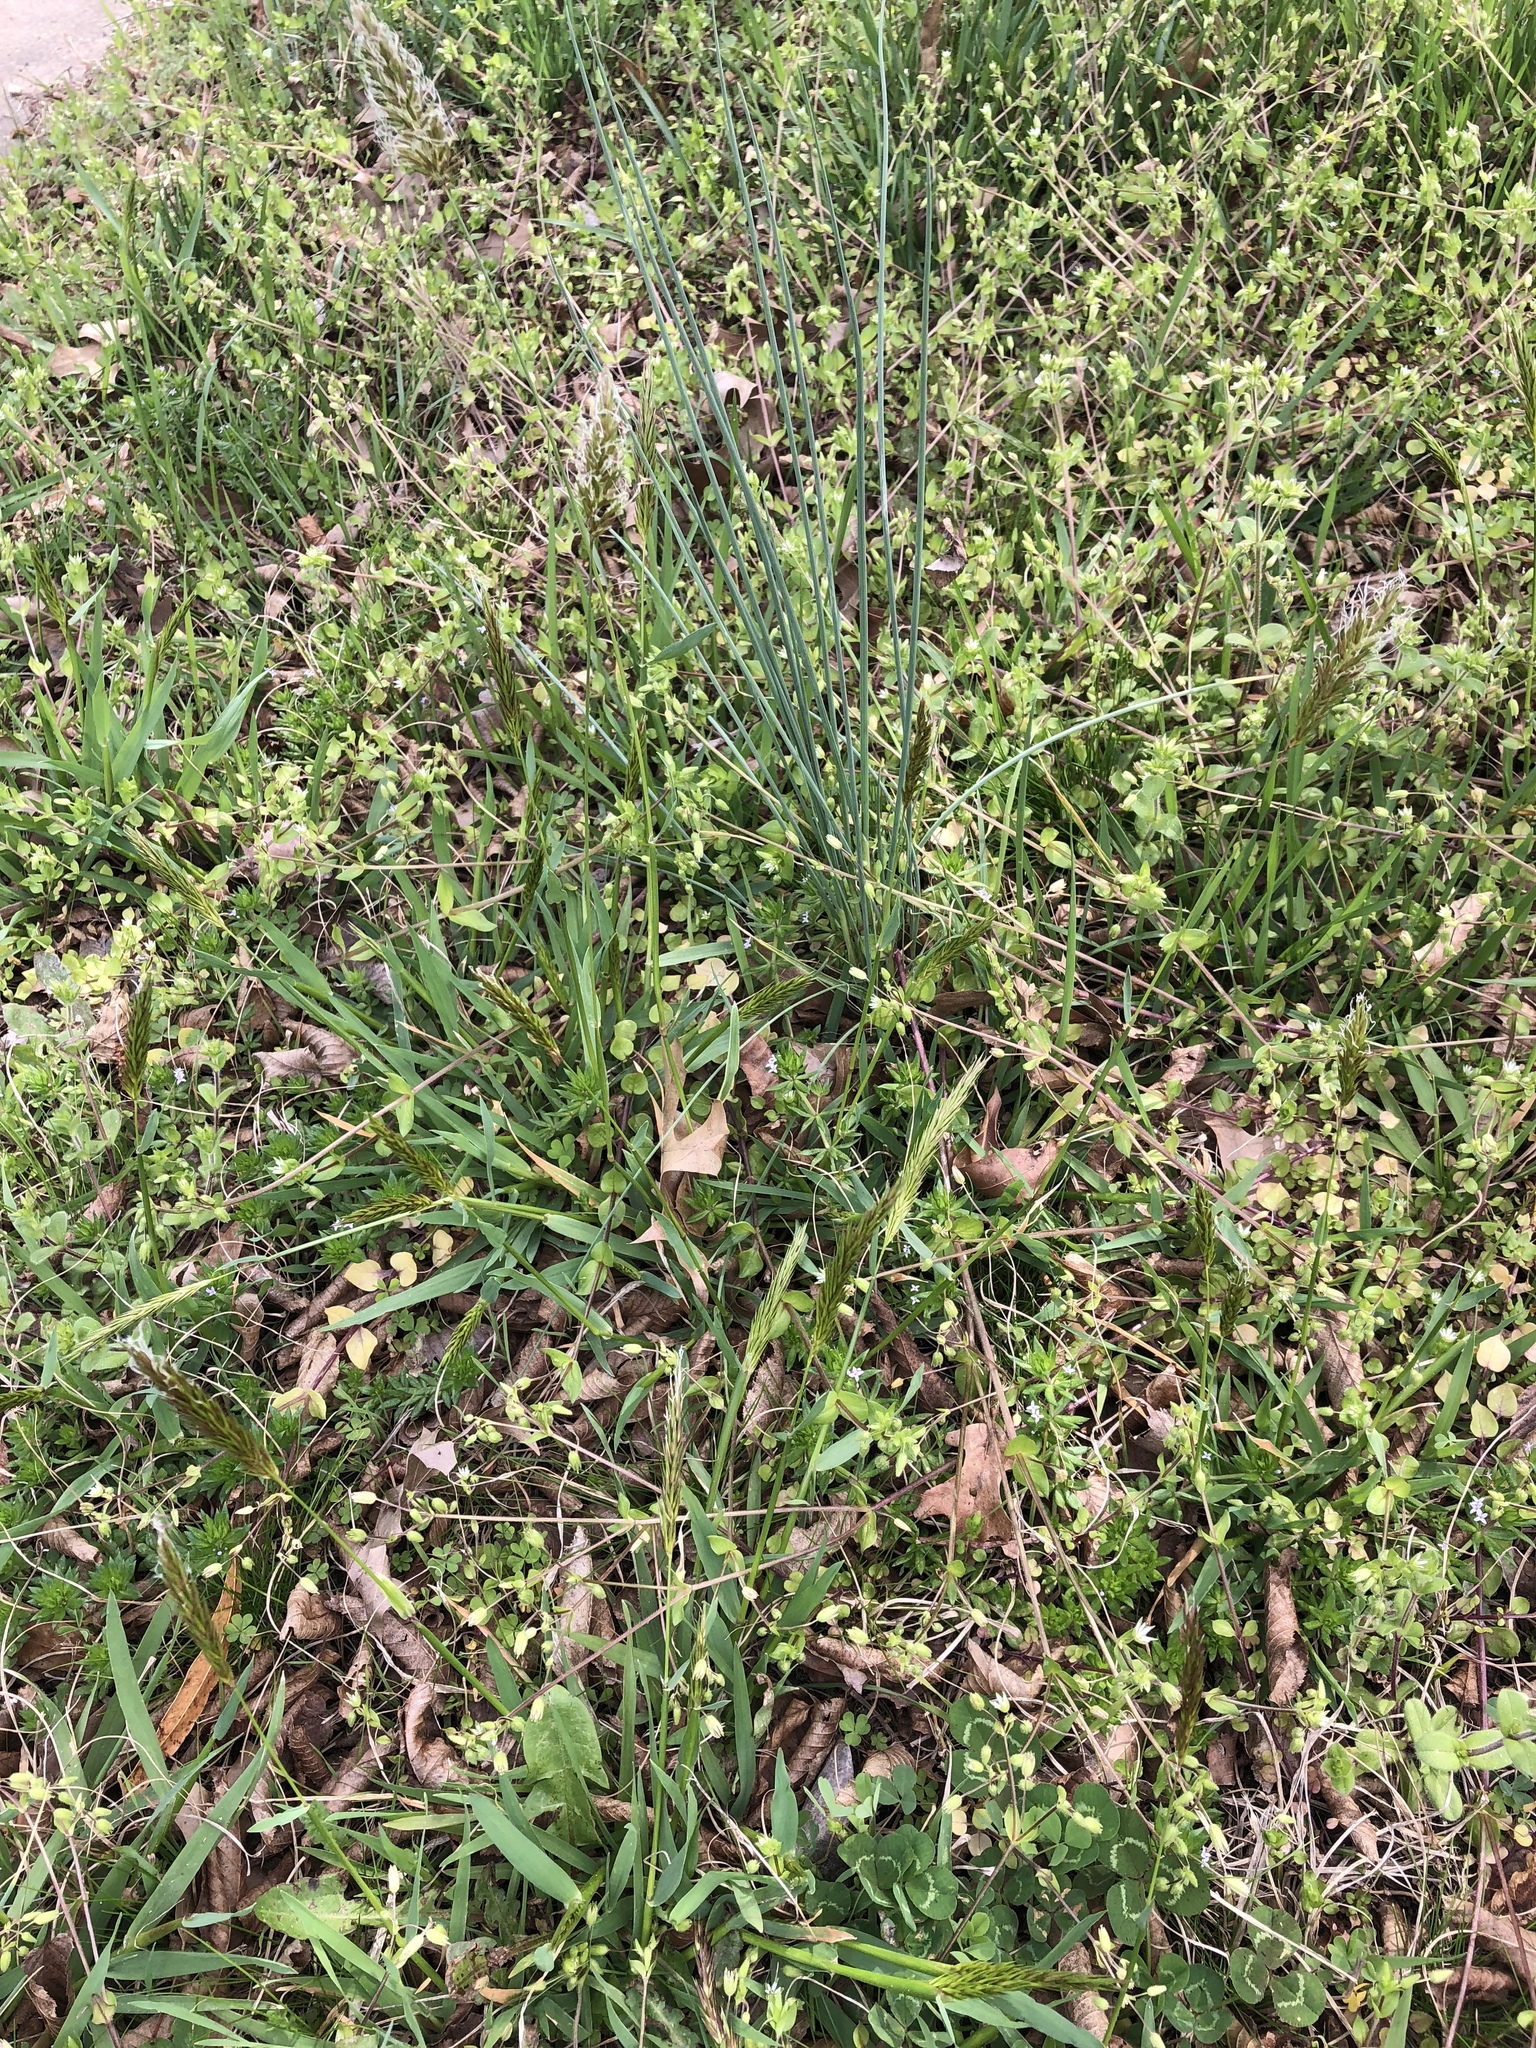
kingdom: Plantae
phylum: Tracheophyta
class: Liliopsida
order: Poales
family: Poaceae
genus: Anthoxanthum
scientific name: Anthoxanthum odoratum
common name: Sweet vernalgrass
